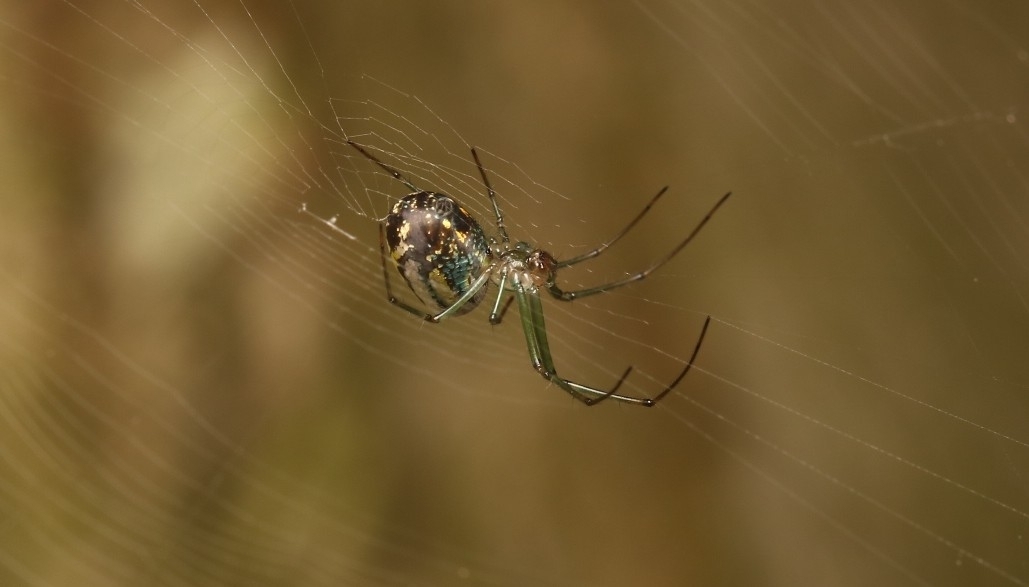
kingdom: Animalia
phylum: Arthropoda
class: Arachnida
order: Araneae
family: Tetragnathidae
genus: Leucauge
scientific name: Leucauge venusta
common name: Longjawed orb weavers
